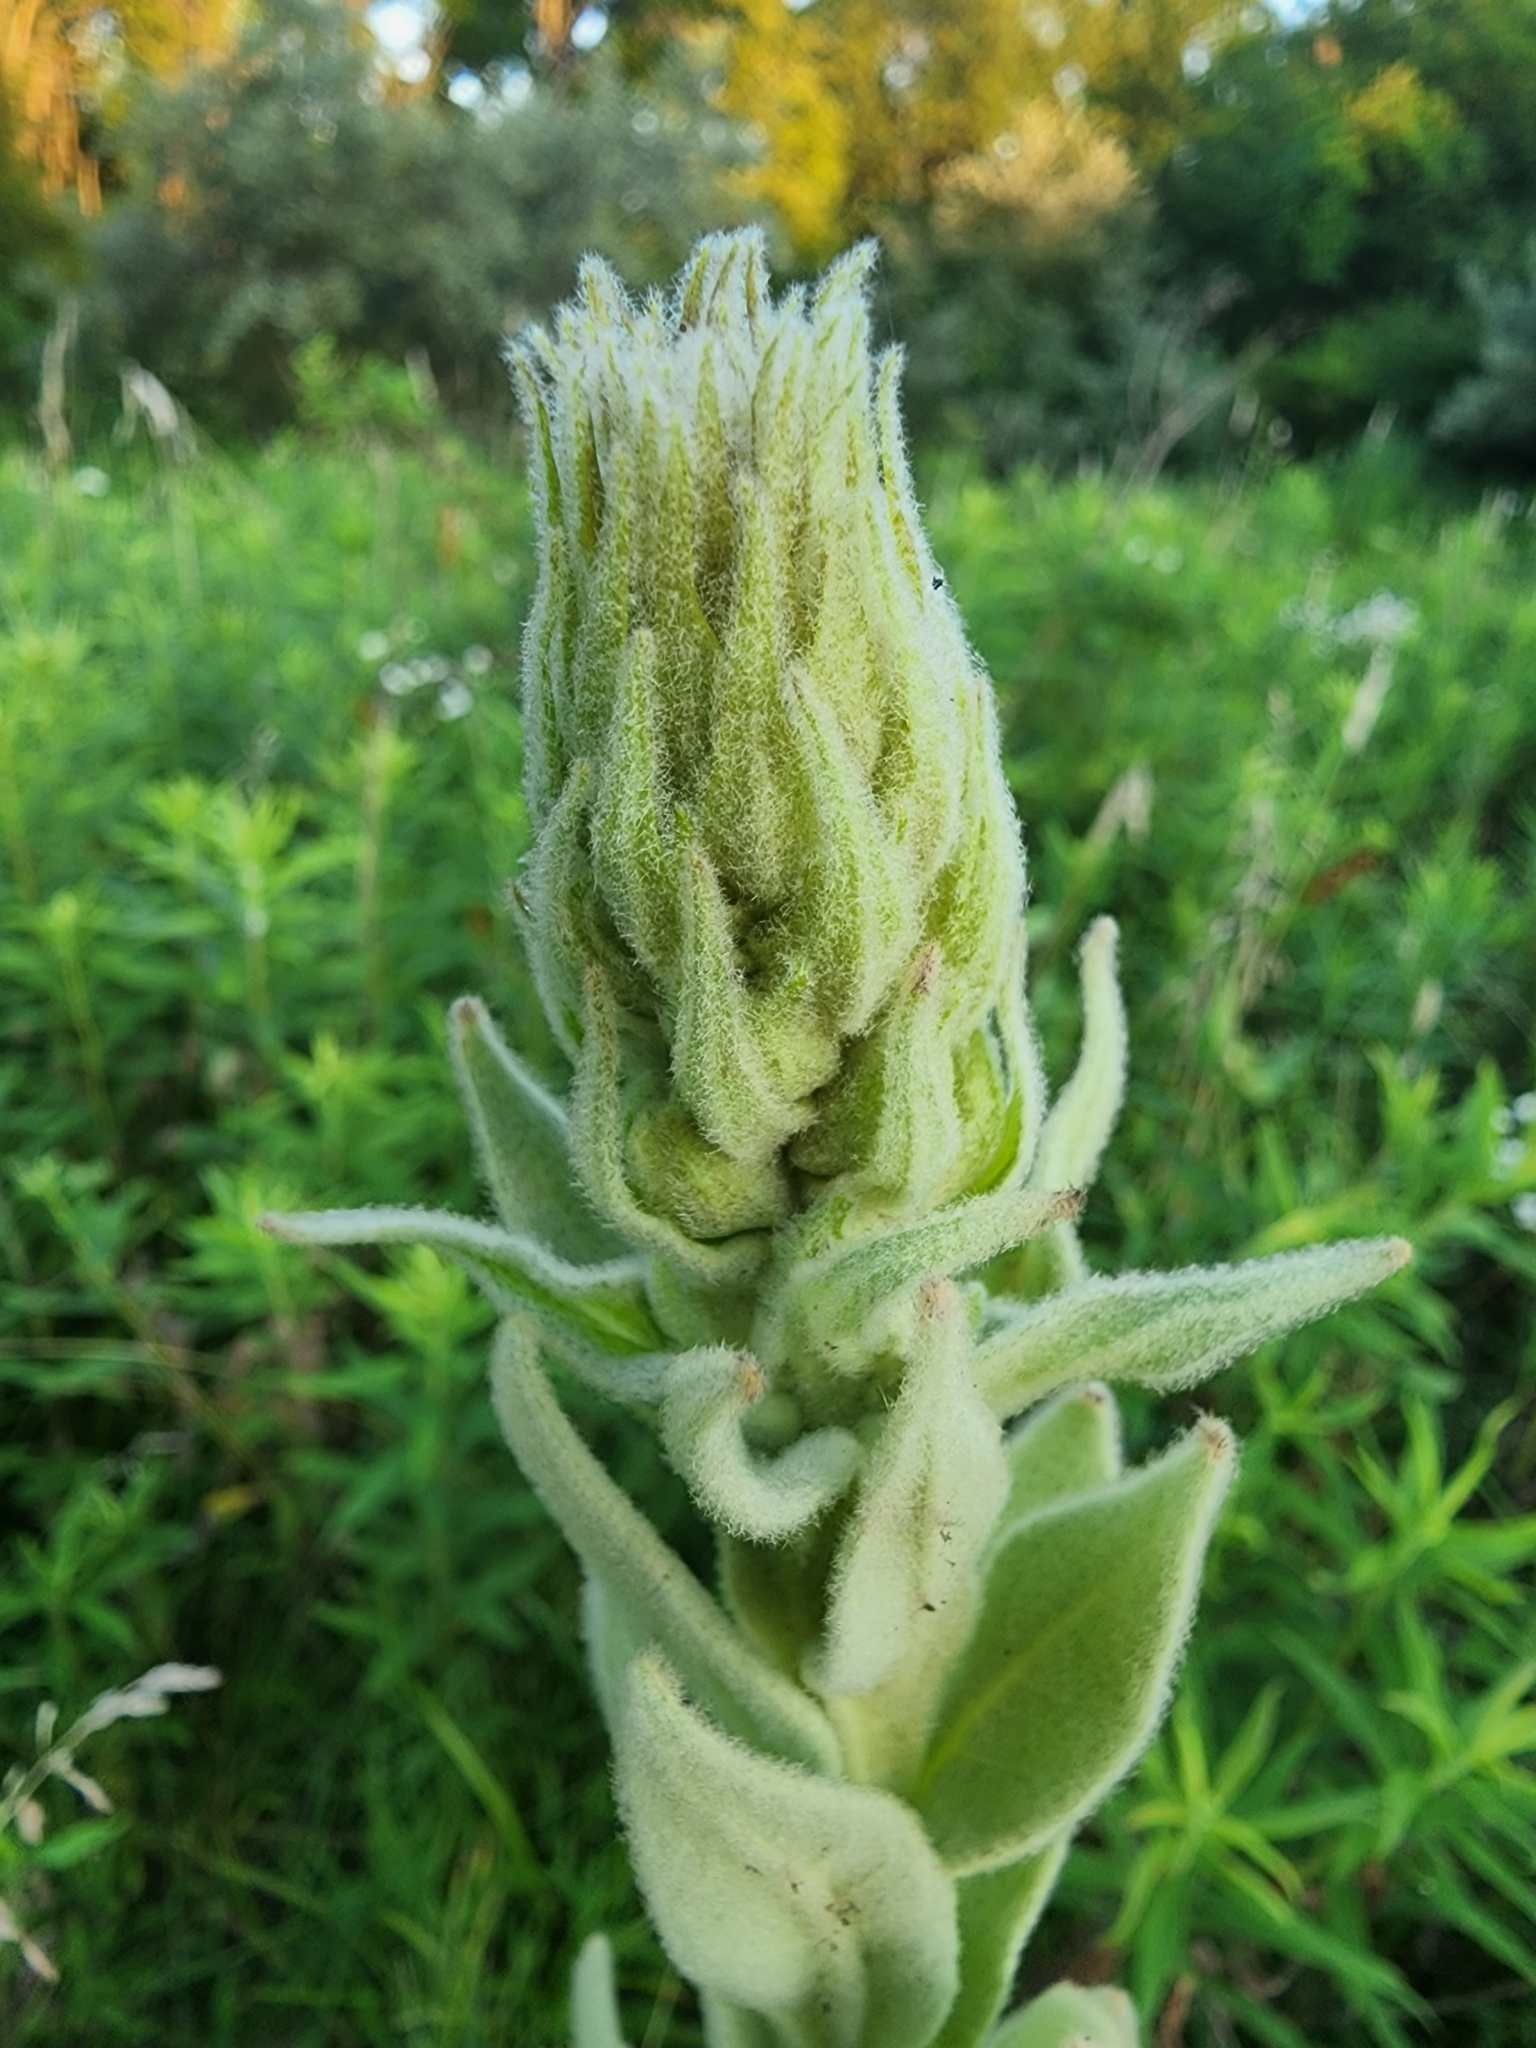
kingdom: Plantae
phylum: Tracheophyta
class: Magnoliopsida
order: Lamiales
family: Scrophulariaceae
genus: Verbascum
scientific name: Verbascum thapsus
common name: Common mullein
